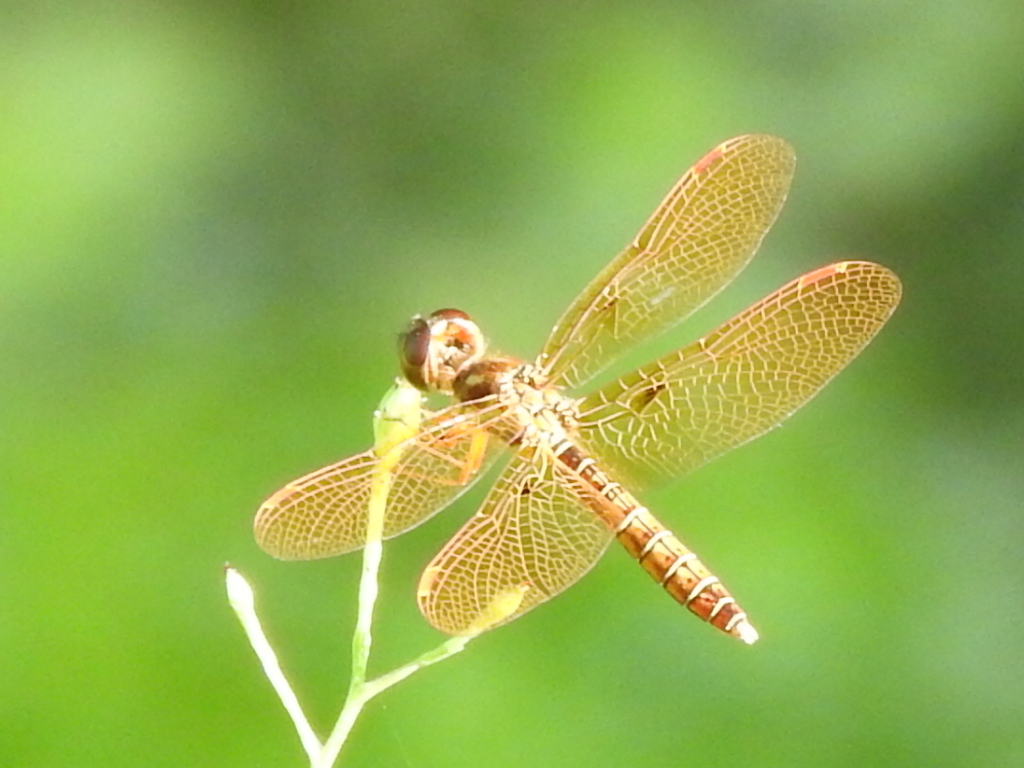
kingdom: Animalia
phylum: Arthropoda
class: Insecta
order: Odonata
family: Libellulidae
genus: Perithemis
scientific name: Perithemis tenera
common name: Eastern amberwing
